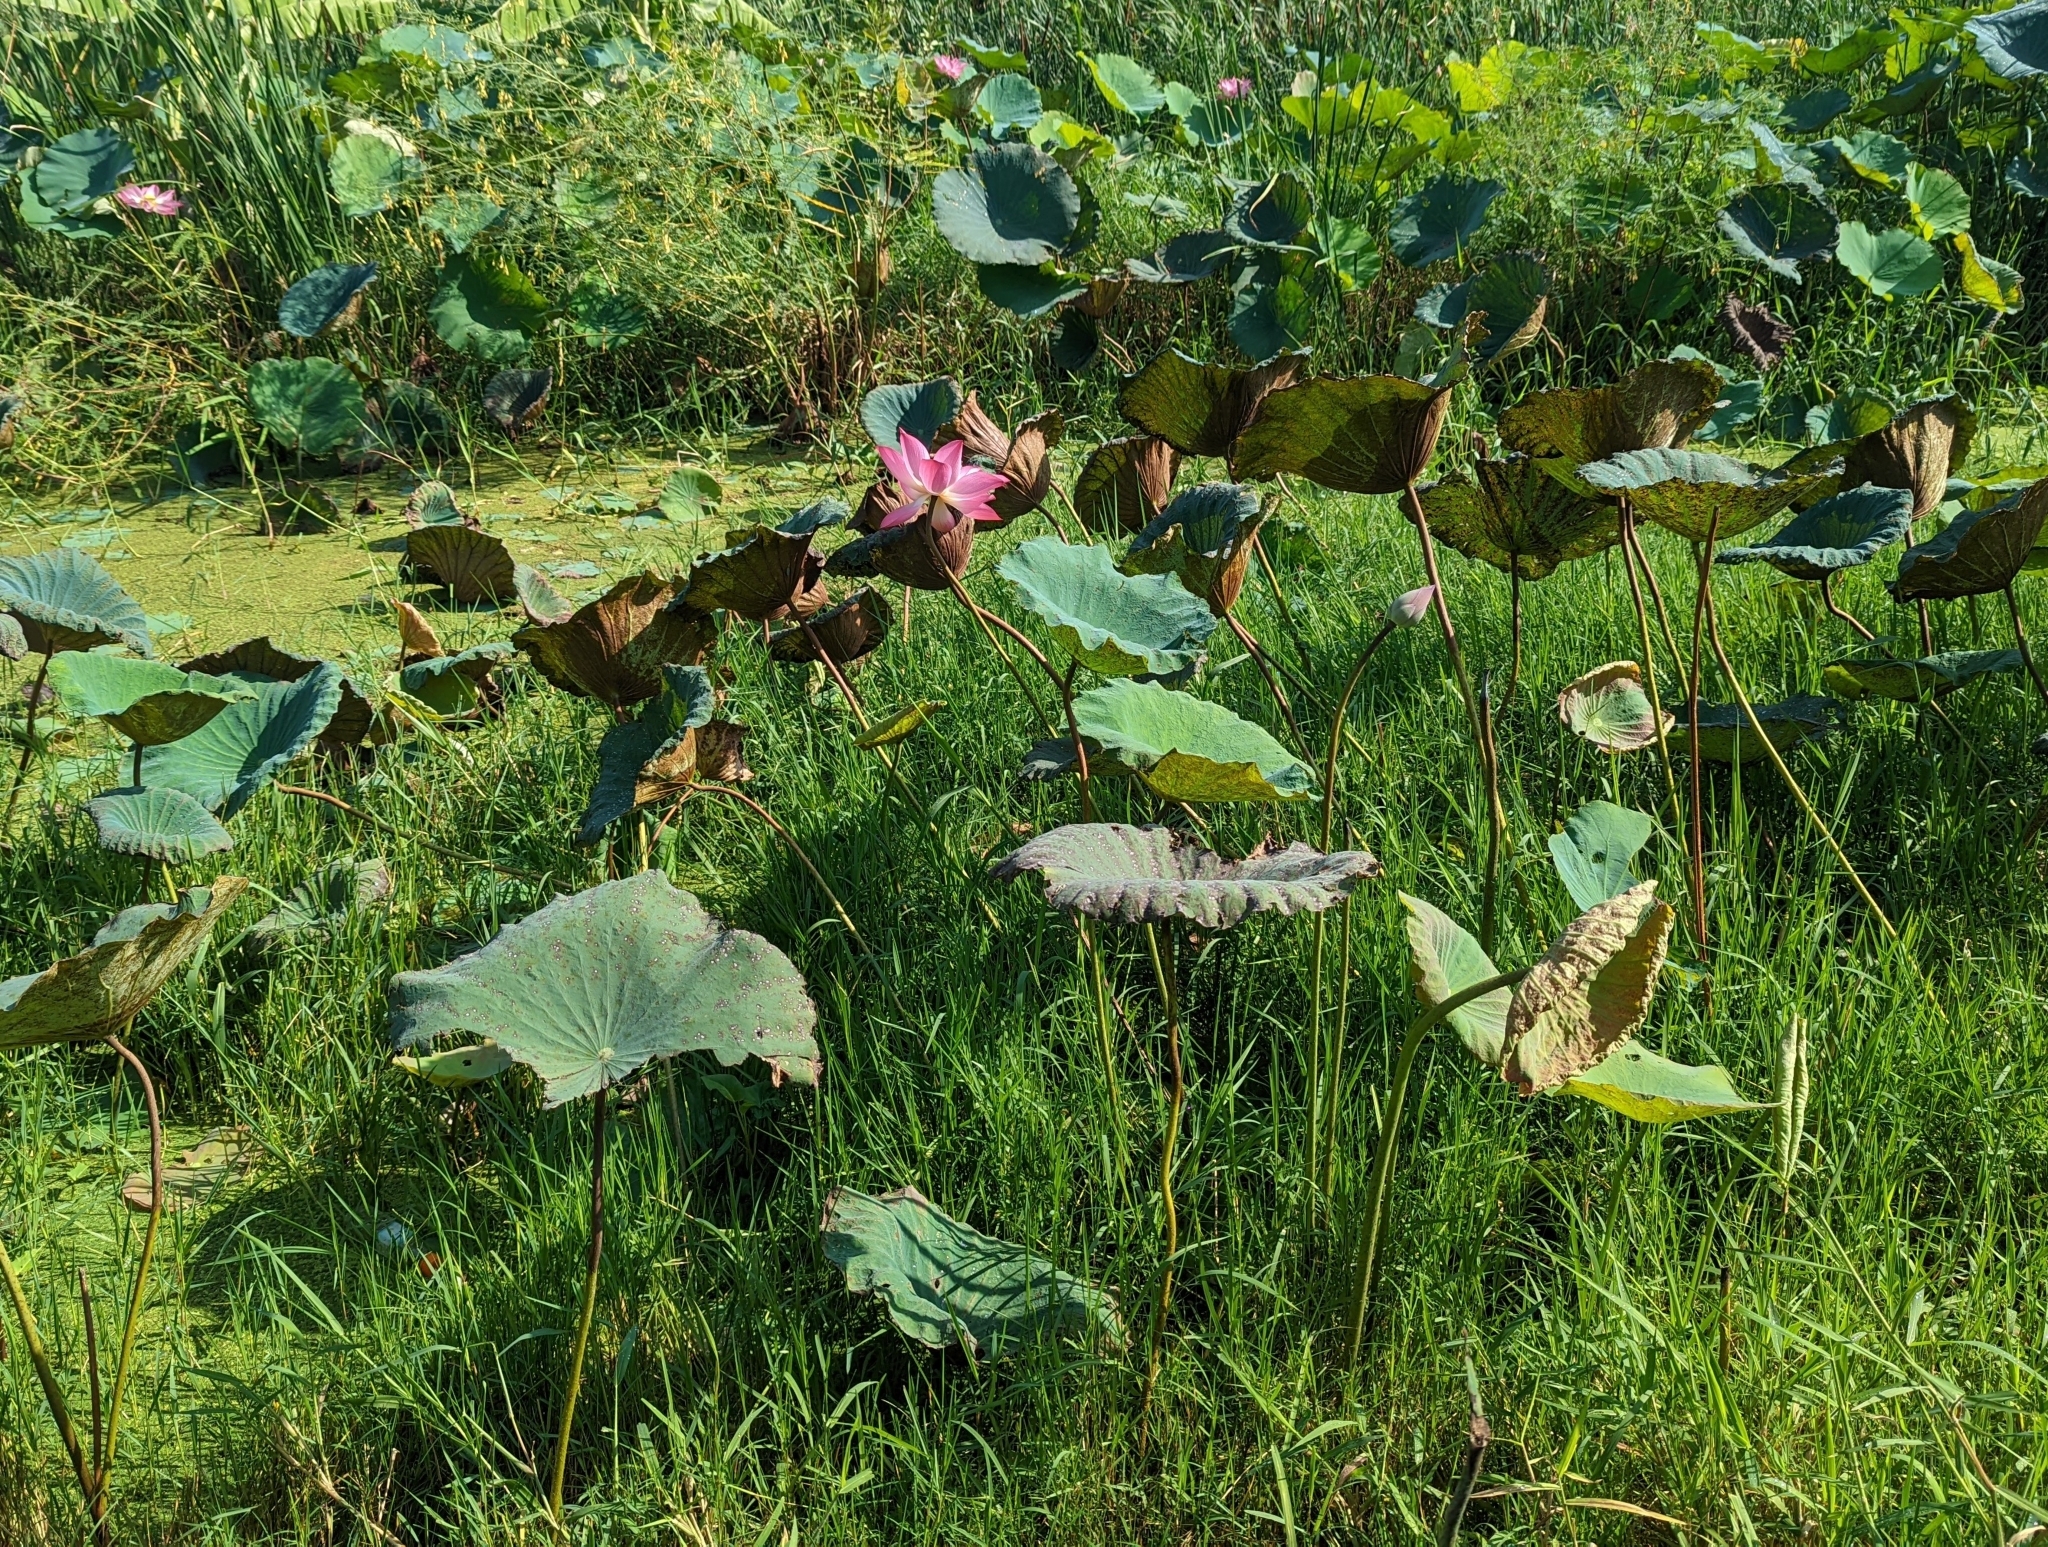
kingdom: Plantae
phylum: Tracheophyta
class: Magnoliopsida
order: Proteales
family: Nelumbonaceae
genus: Nelumbo
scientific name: Nelumbo nucifera
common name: Sacred lotus
